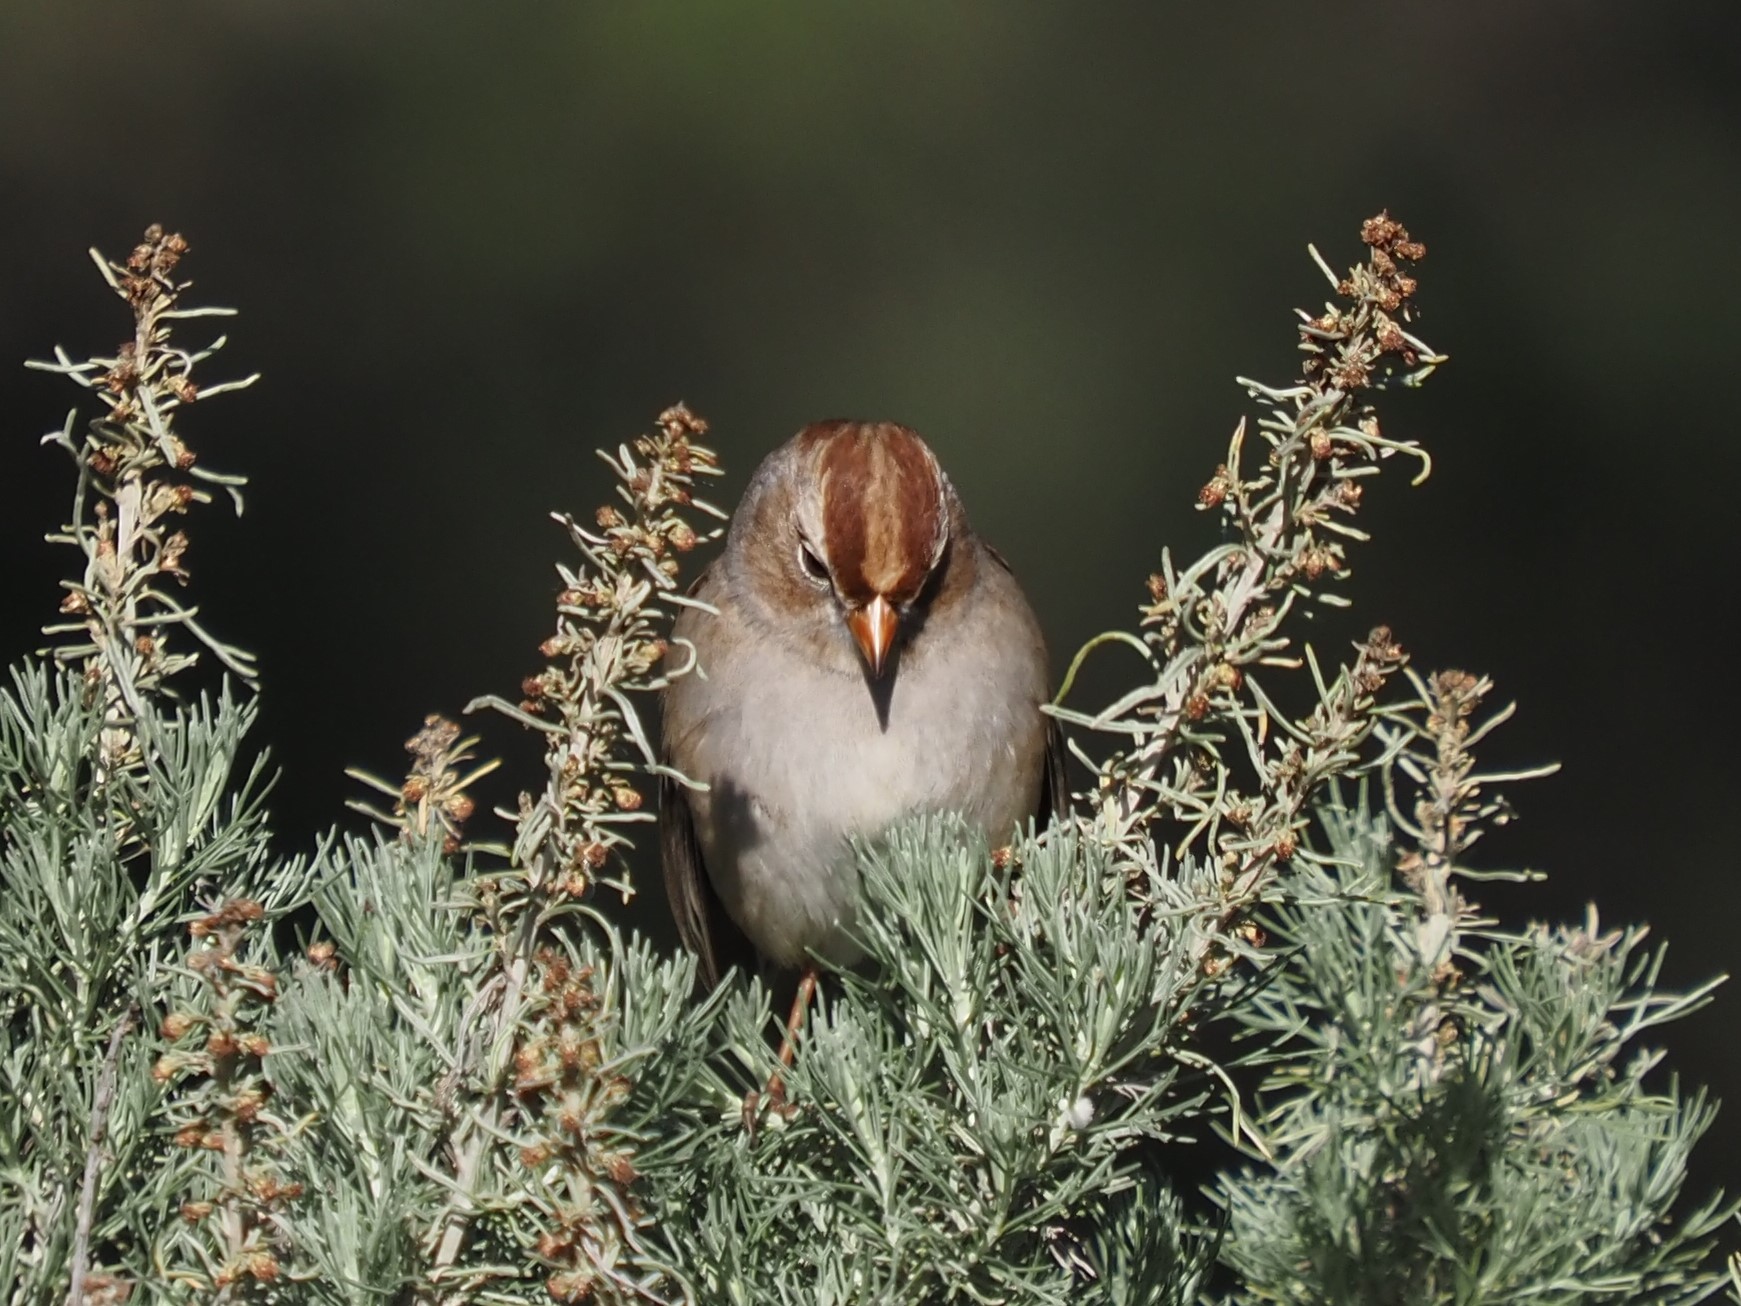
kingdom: Animalia
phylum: Chordata
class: Aves
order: Passeriformes
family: Passerellidae
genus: Zonotrichia
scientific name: Zonotrichia leucophrys
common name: White-crowned sparrow
